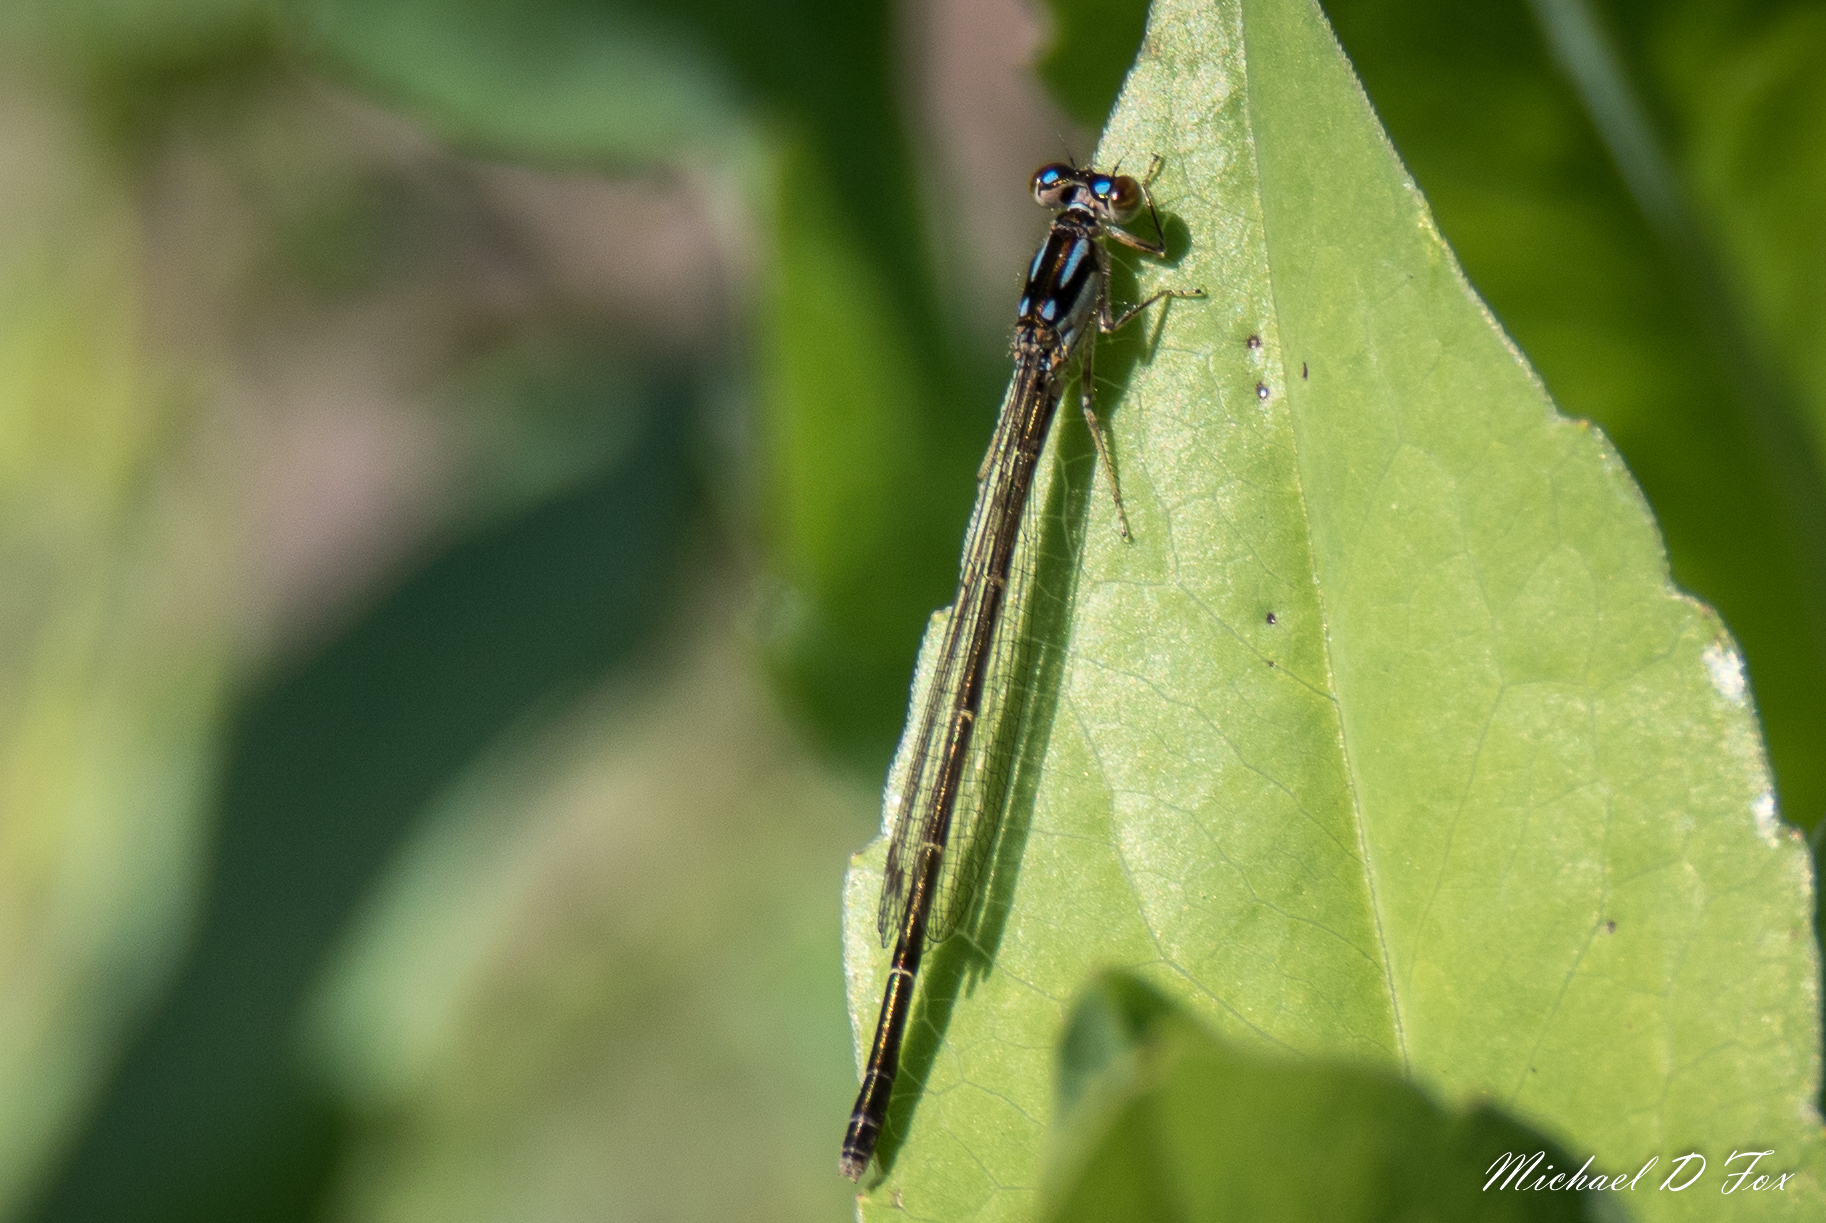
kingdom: Animalia
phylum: Arthropoda
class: Insecta
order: Odonata
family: Coenagrionidae
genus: Ischnura
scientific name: Ischnura posita
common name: Fragile forktail
